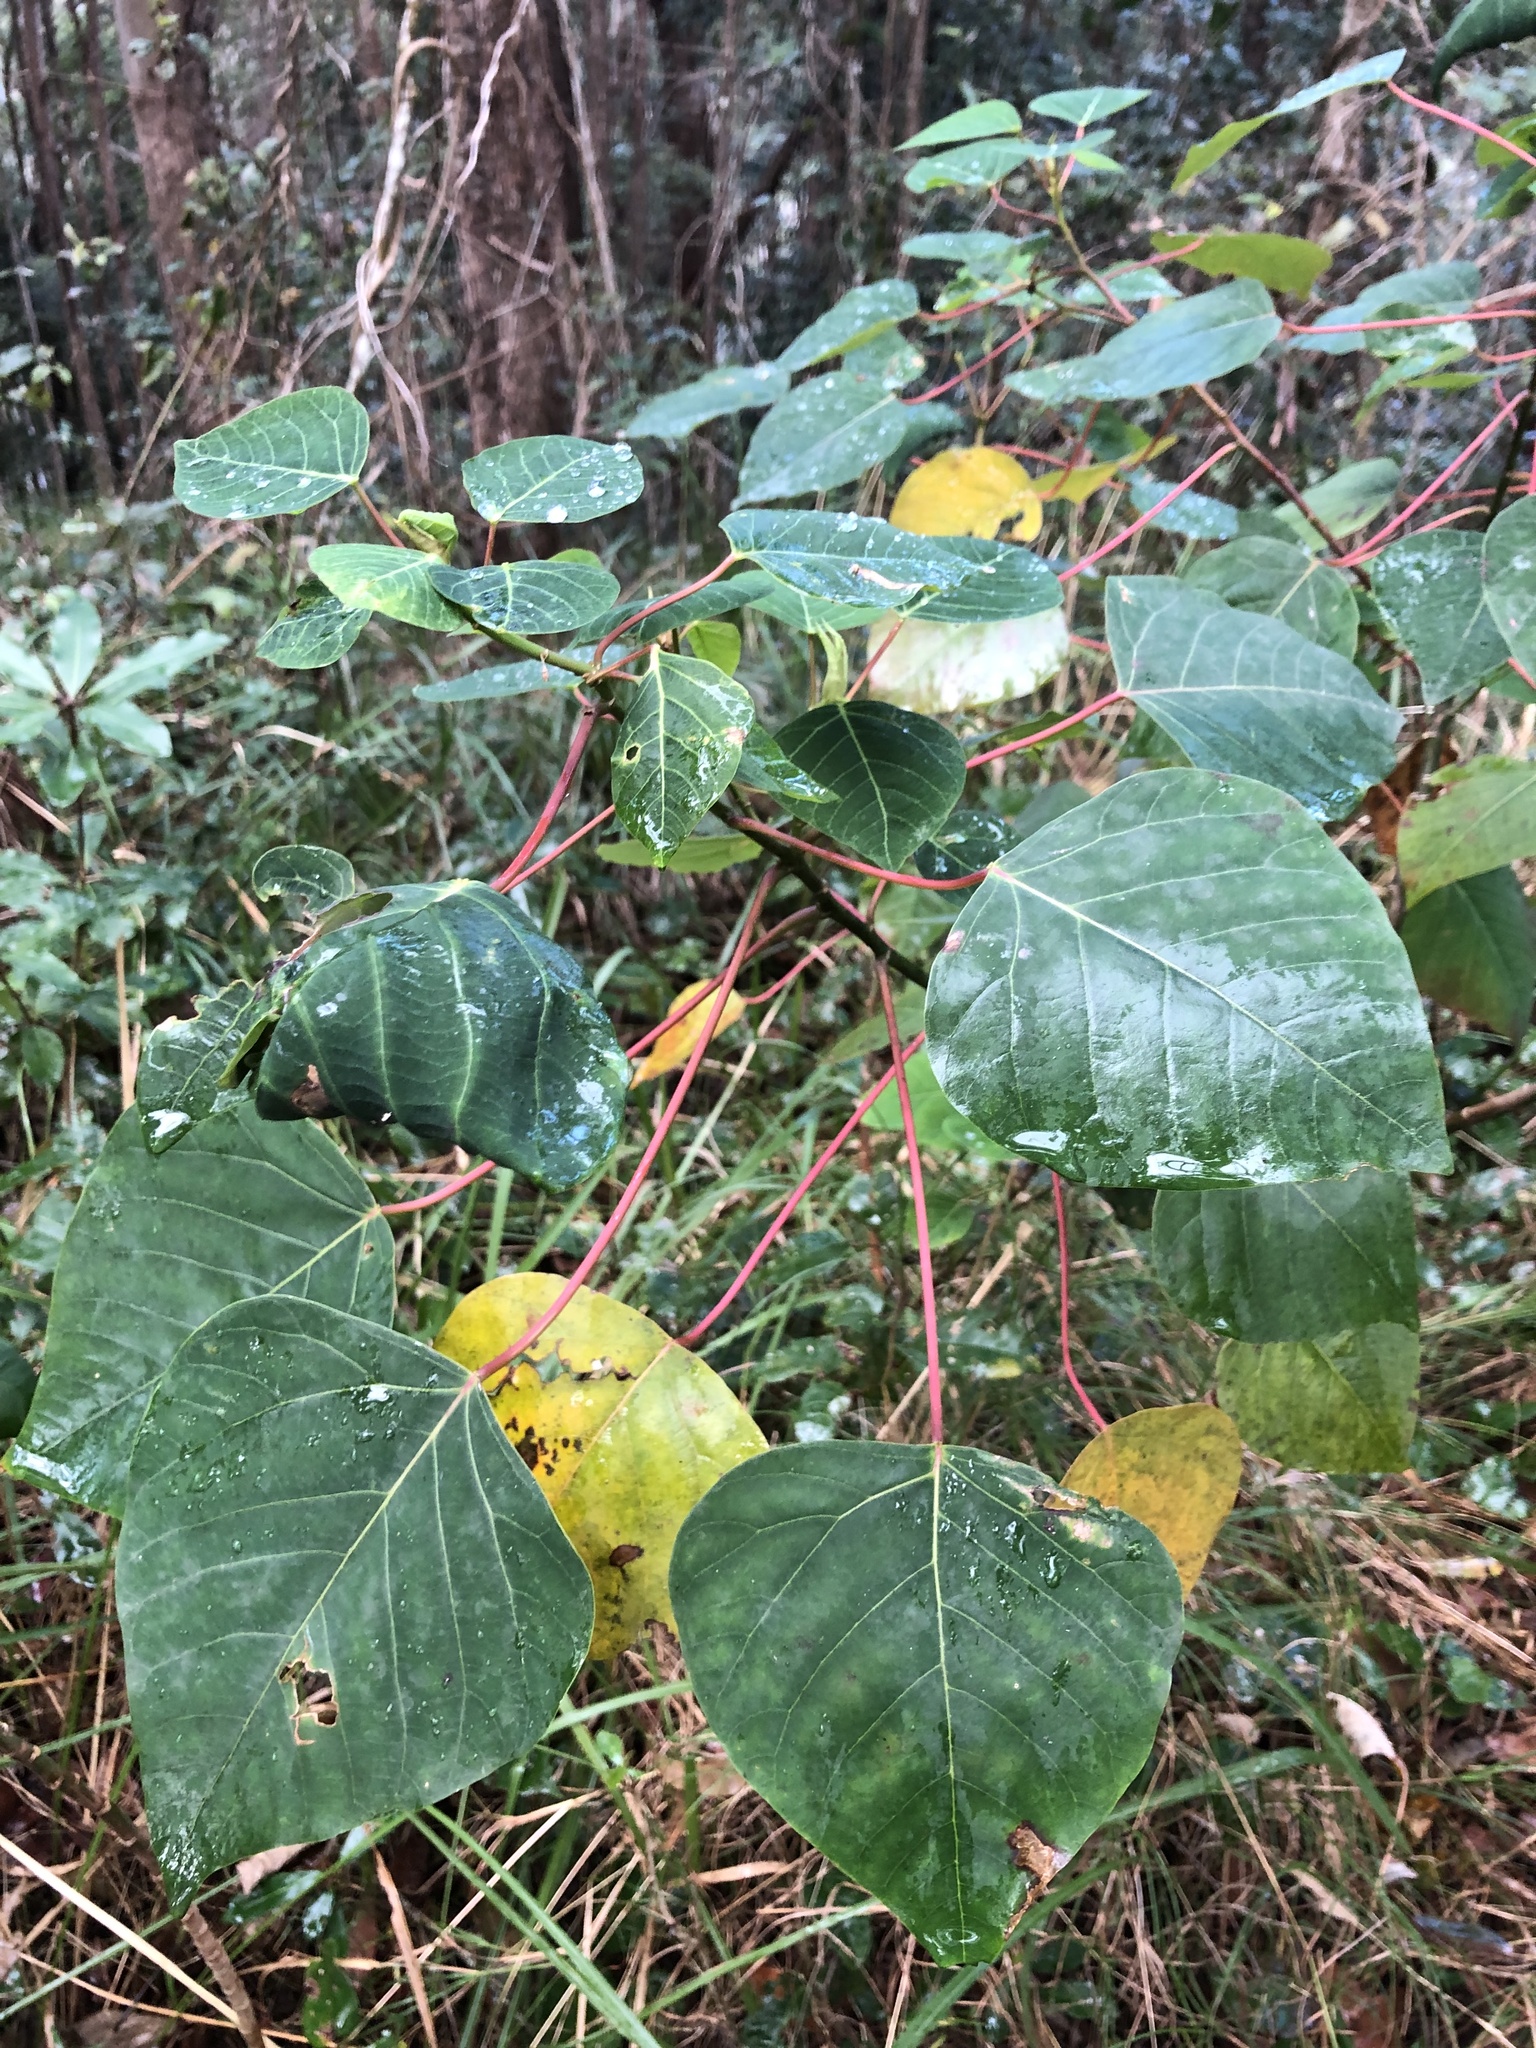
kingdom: Plantae
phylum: Tracheophyta
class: Magnoliopsida
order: Malpighiales
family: Euphorbiaceae
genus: Homalanthus
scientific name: Homalanthus populifolius
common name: Queensland poplar
